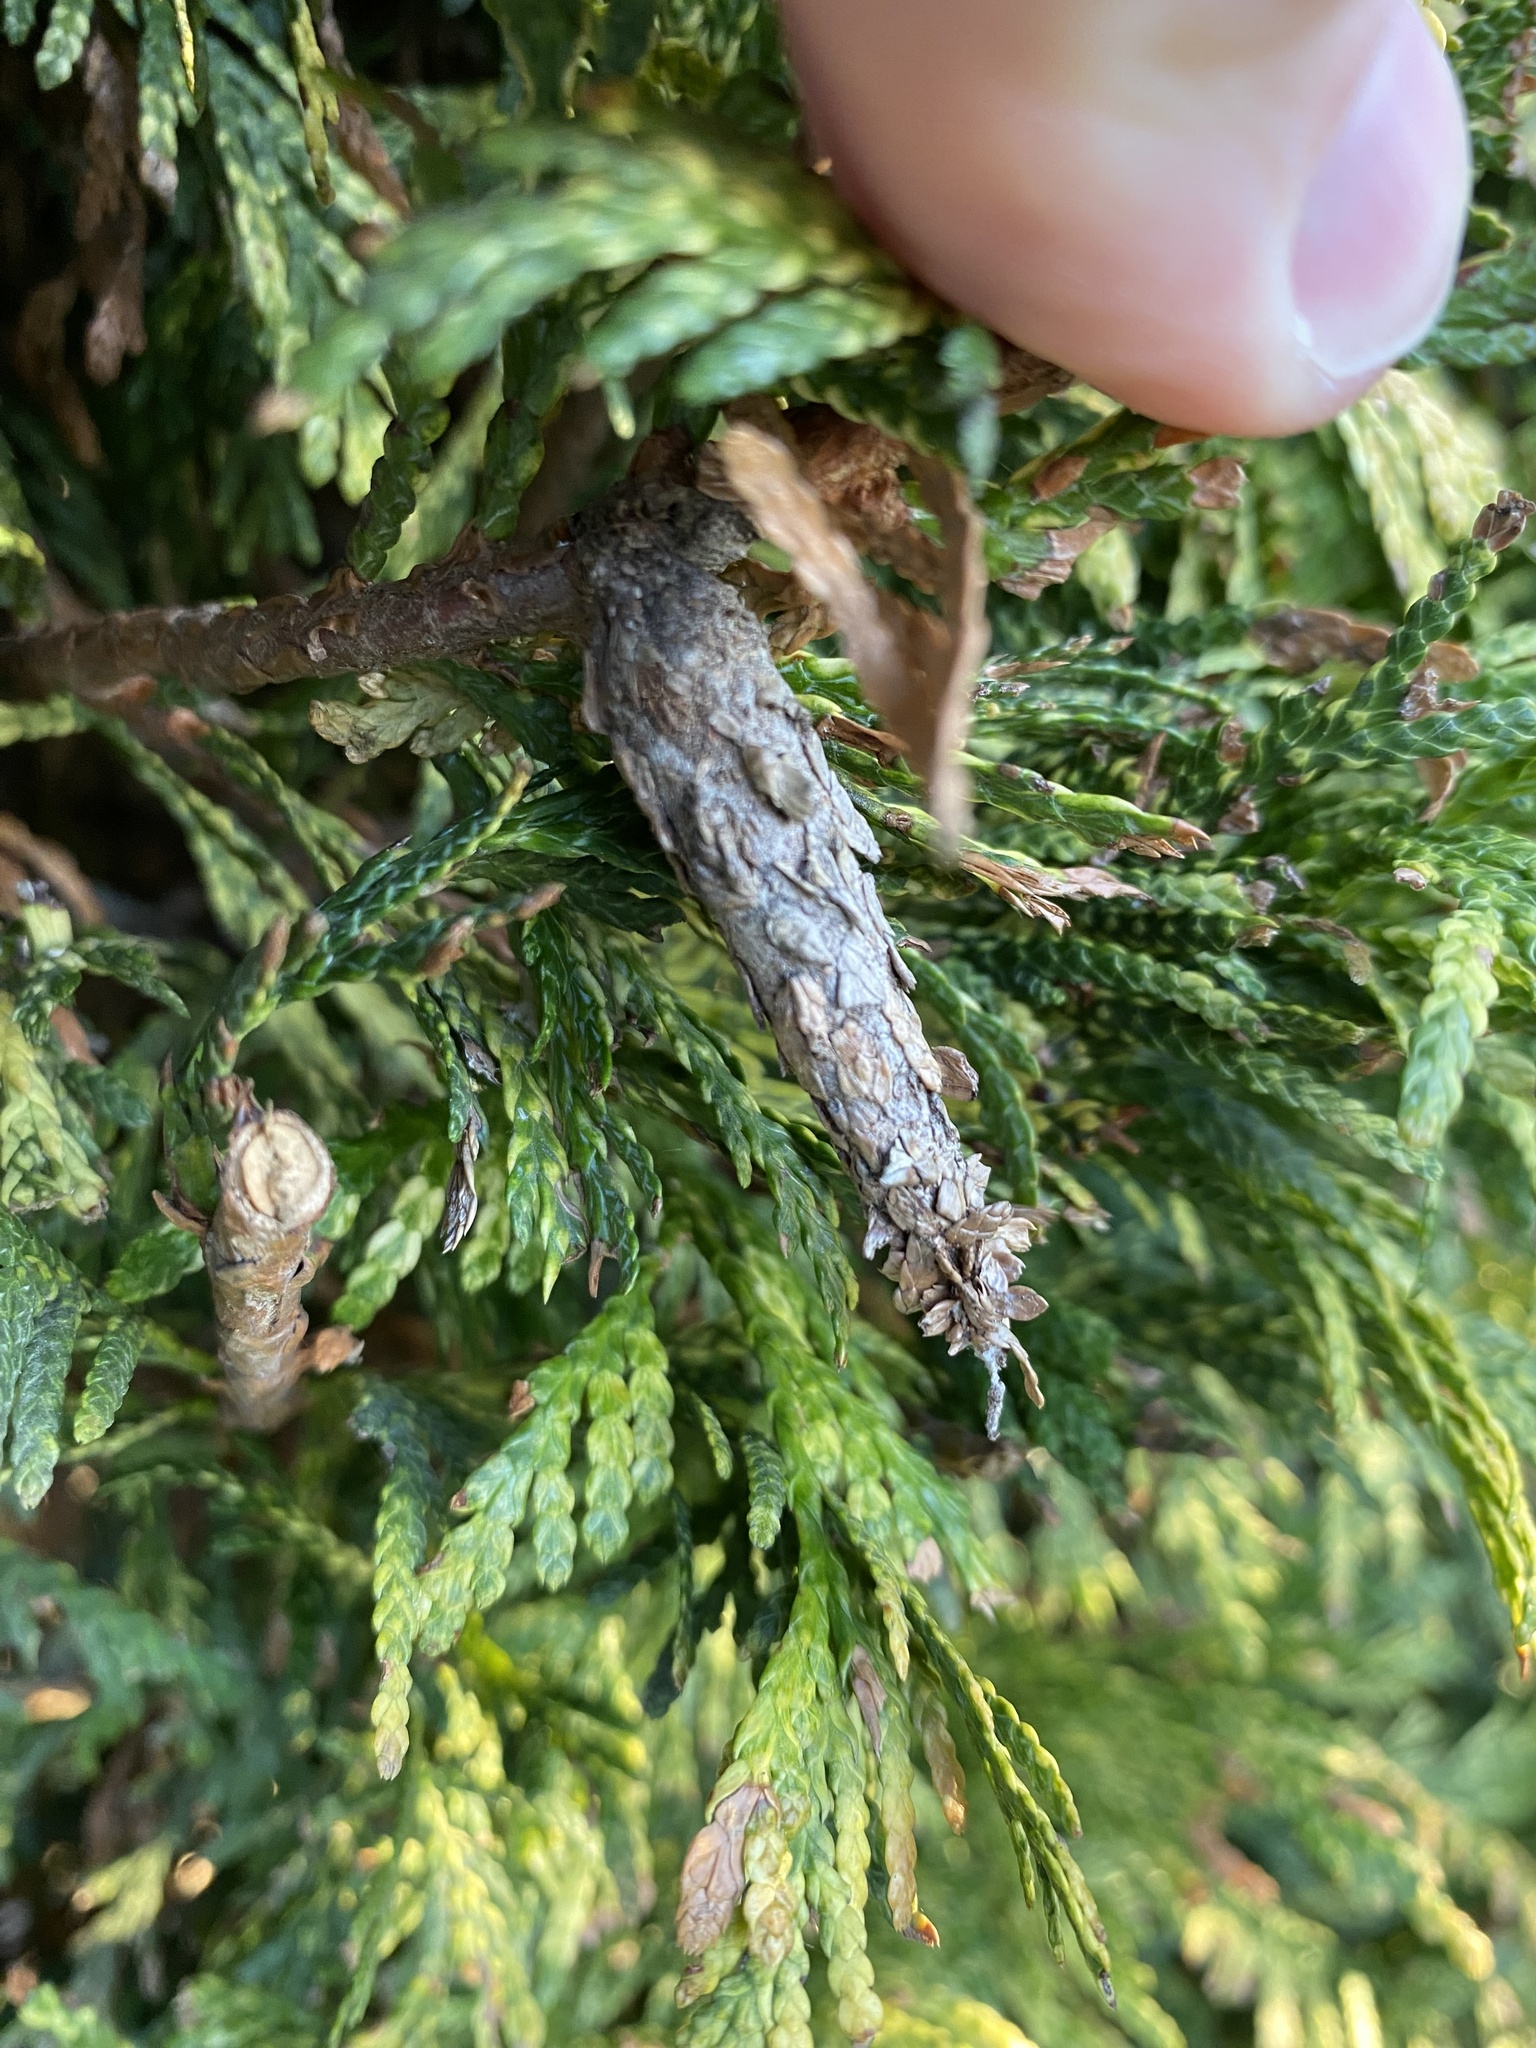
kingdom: Animalia
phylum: Arthropoda
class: Insecta
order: Lepidoptera
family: Psychidae
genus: Liothula
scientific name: Liothula omnivora
